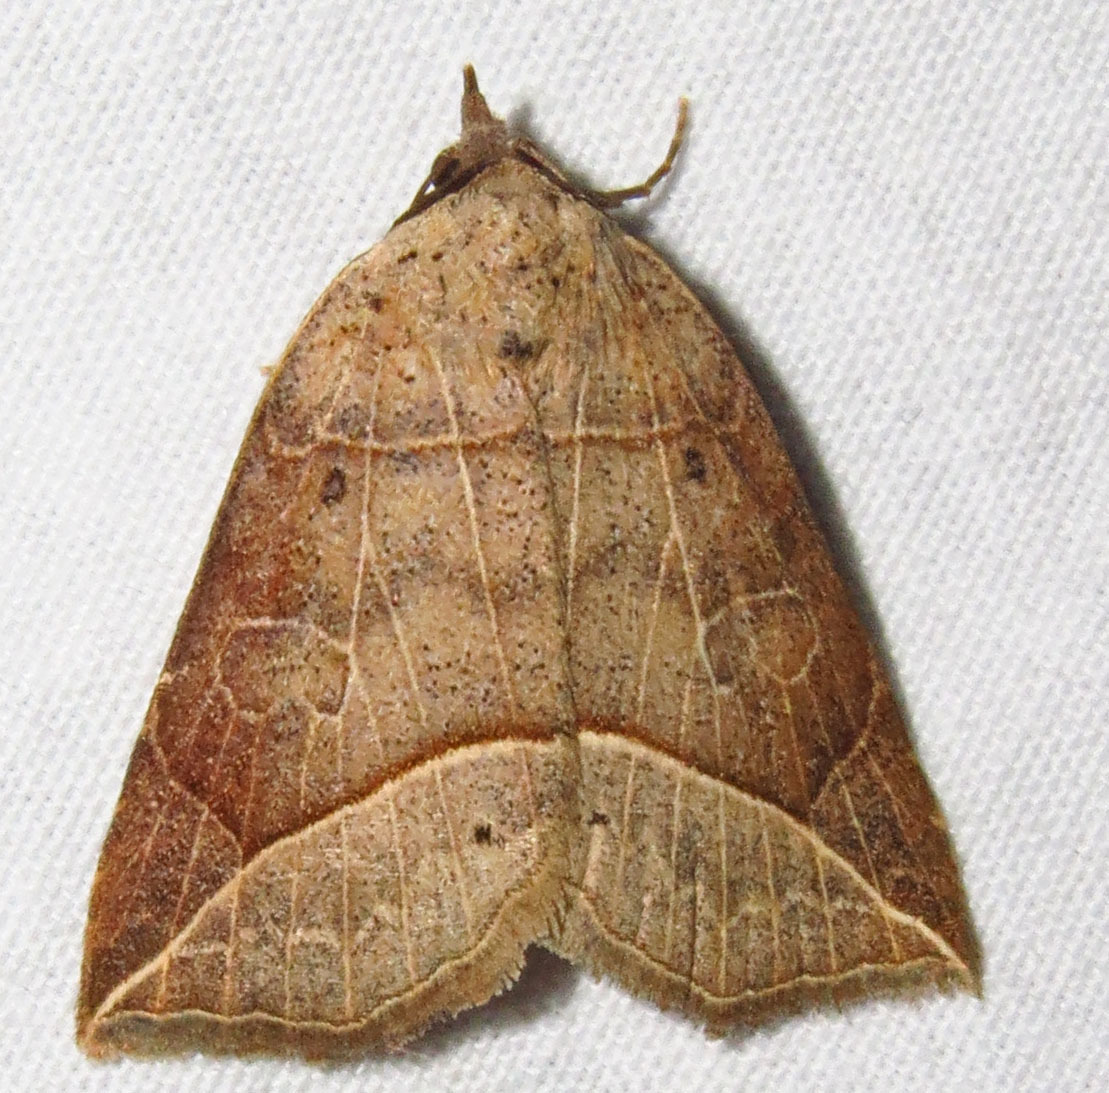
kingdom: Animalia
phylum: Arthropoda
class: Insecta
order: Lepidoptera
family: Erebidae
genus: Isogona
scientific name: Isogona tenuis
